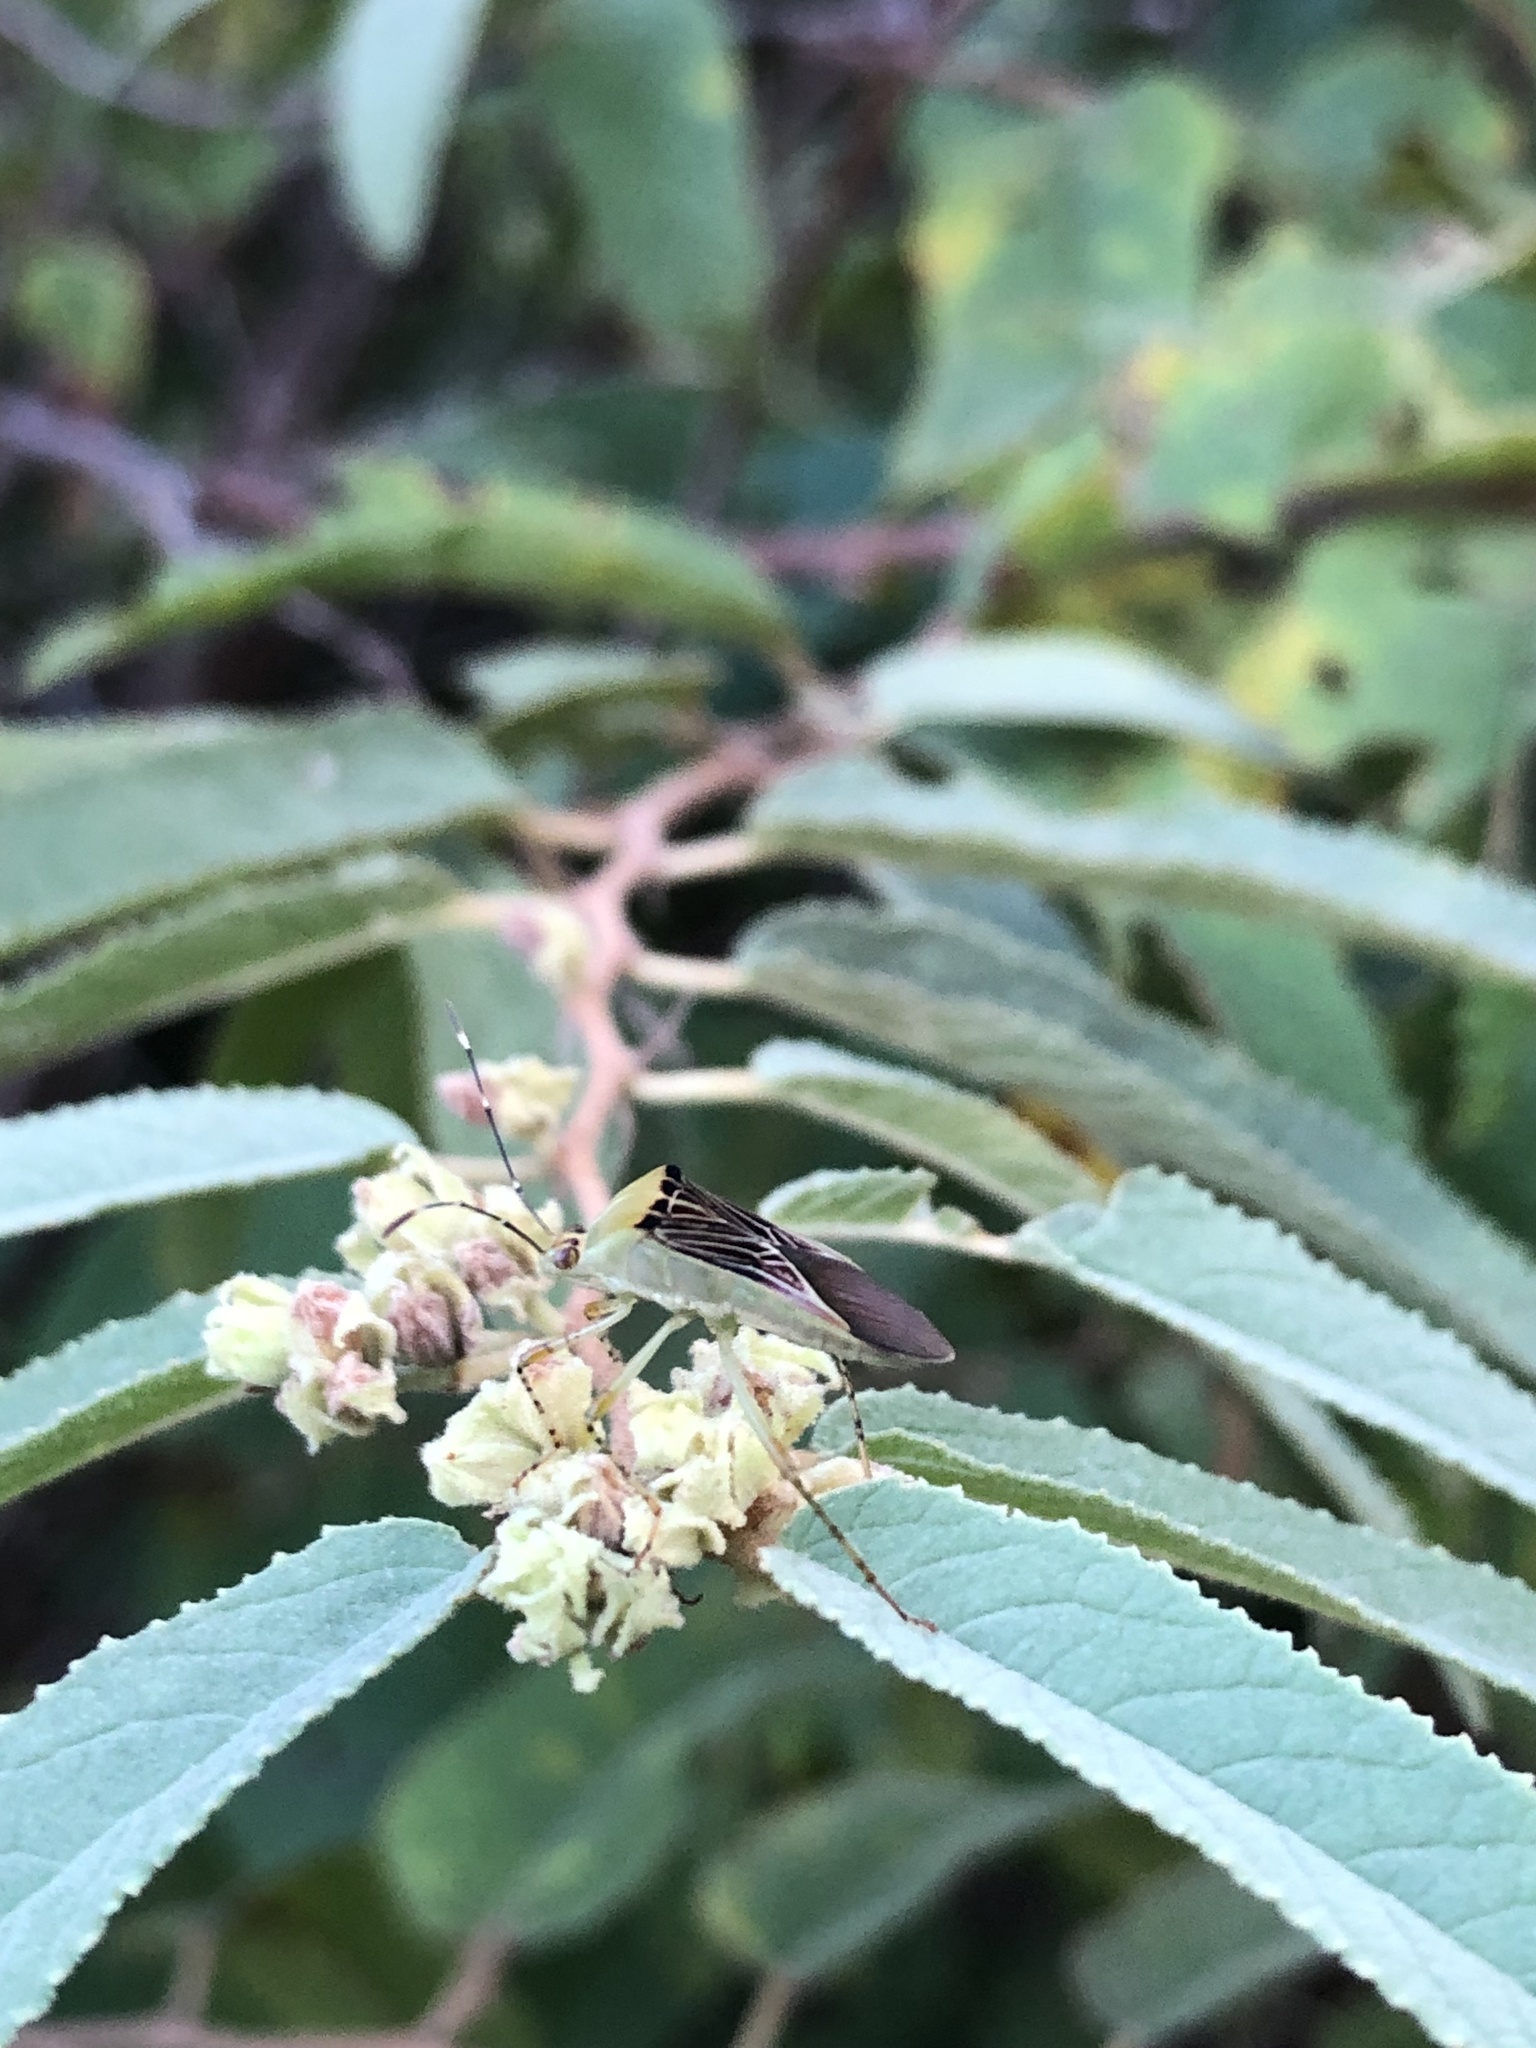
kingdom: Animalia
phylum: Arthropoda
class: Insecta
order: Hemiptera
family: Coreidae
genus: Hypselonotus
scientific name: Hypselonotus fulvus
